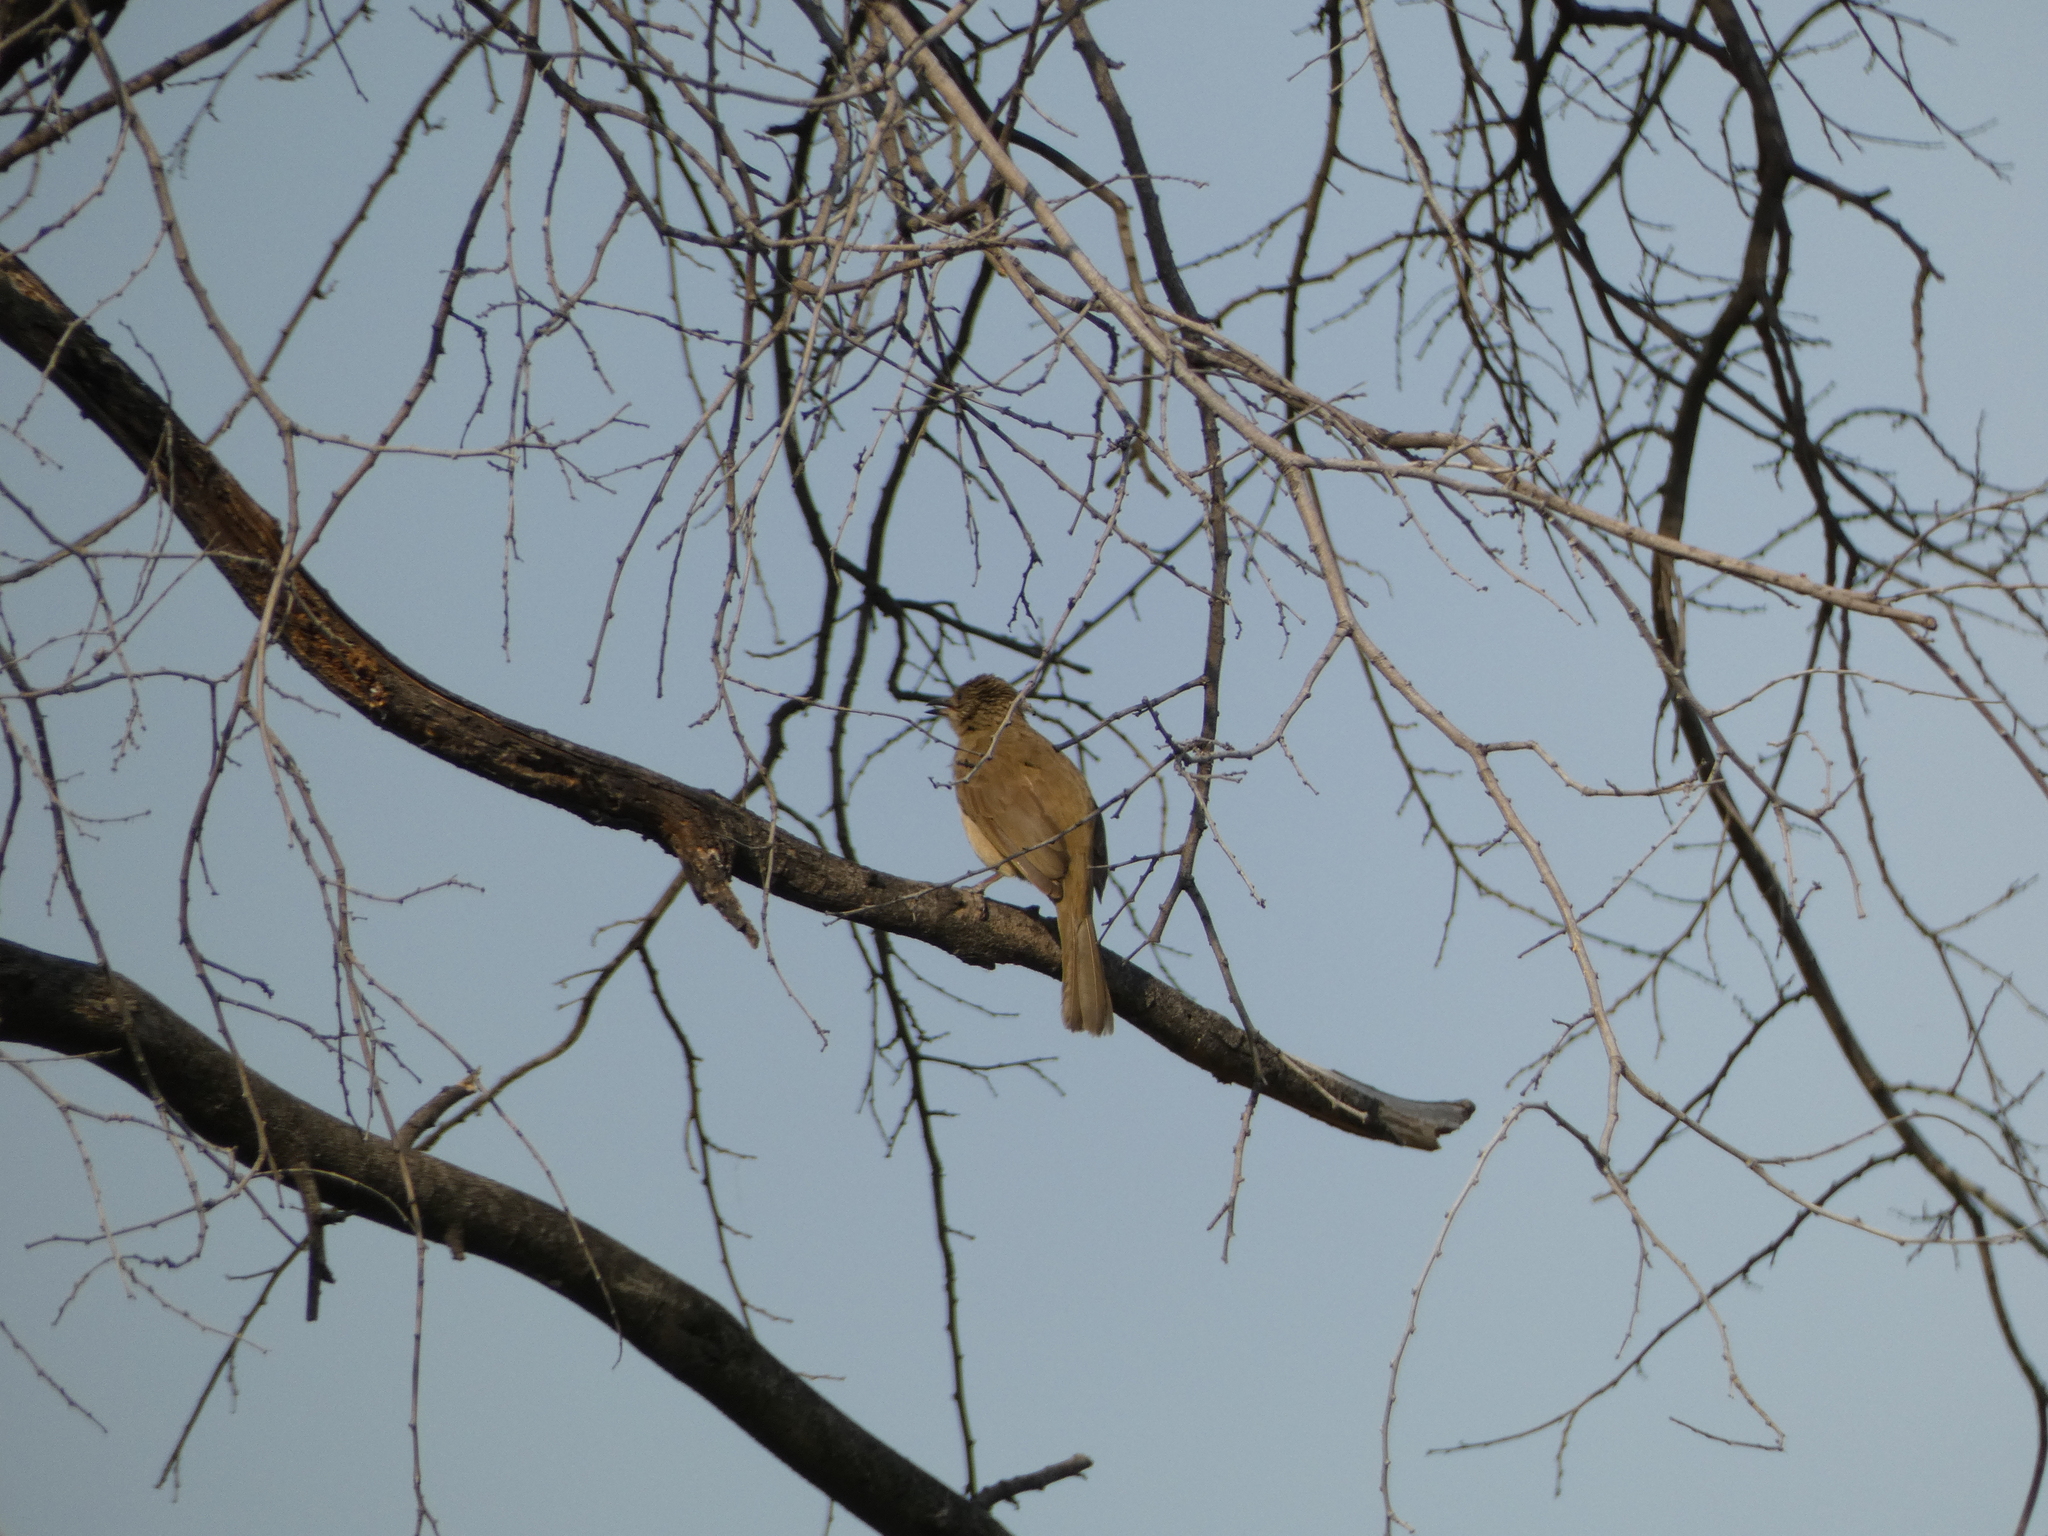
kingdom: Animalia
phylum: Chordata
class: Aves
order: Passeriformes
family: Pycnonotidae
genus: Pycnonotus
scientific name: Pycnonotus blanfordi
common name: Streak-eared bulbul
